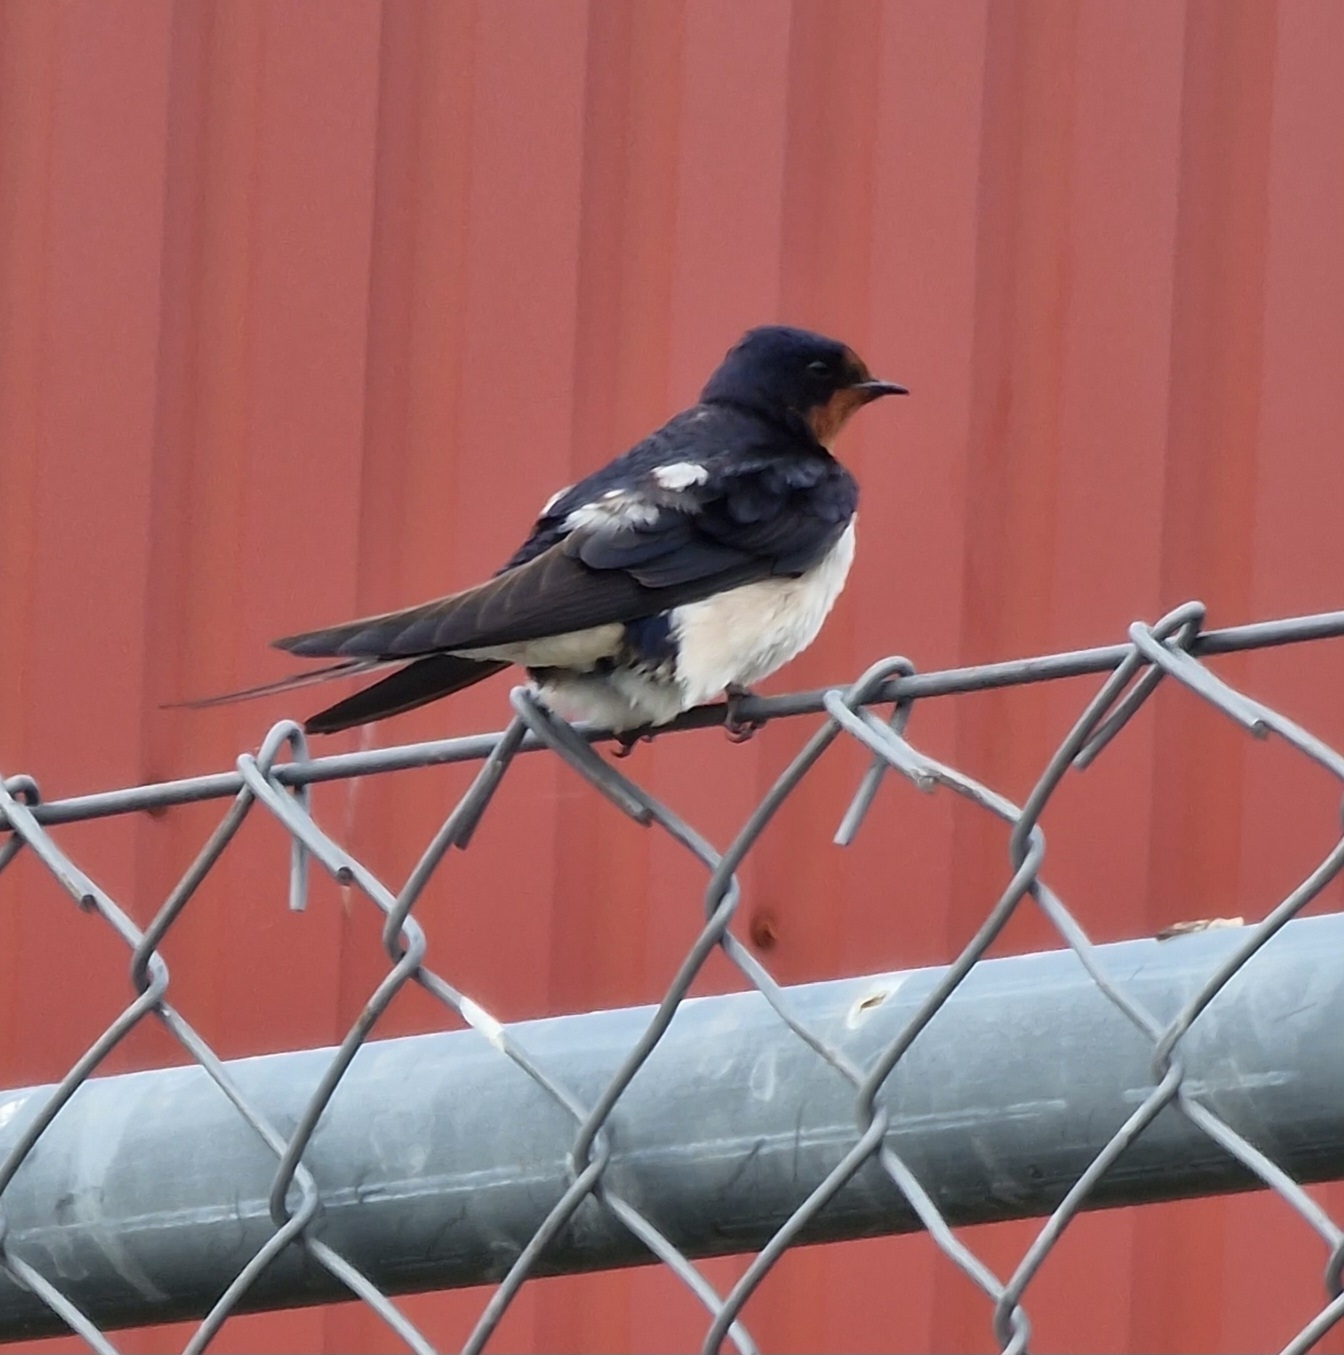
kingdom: Animalia
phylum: Chordata
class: Aves
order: Passeriformes
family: Hirundinidae
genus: Hirundo
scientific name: Hirundo rustica
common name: Barn swallow
